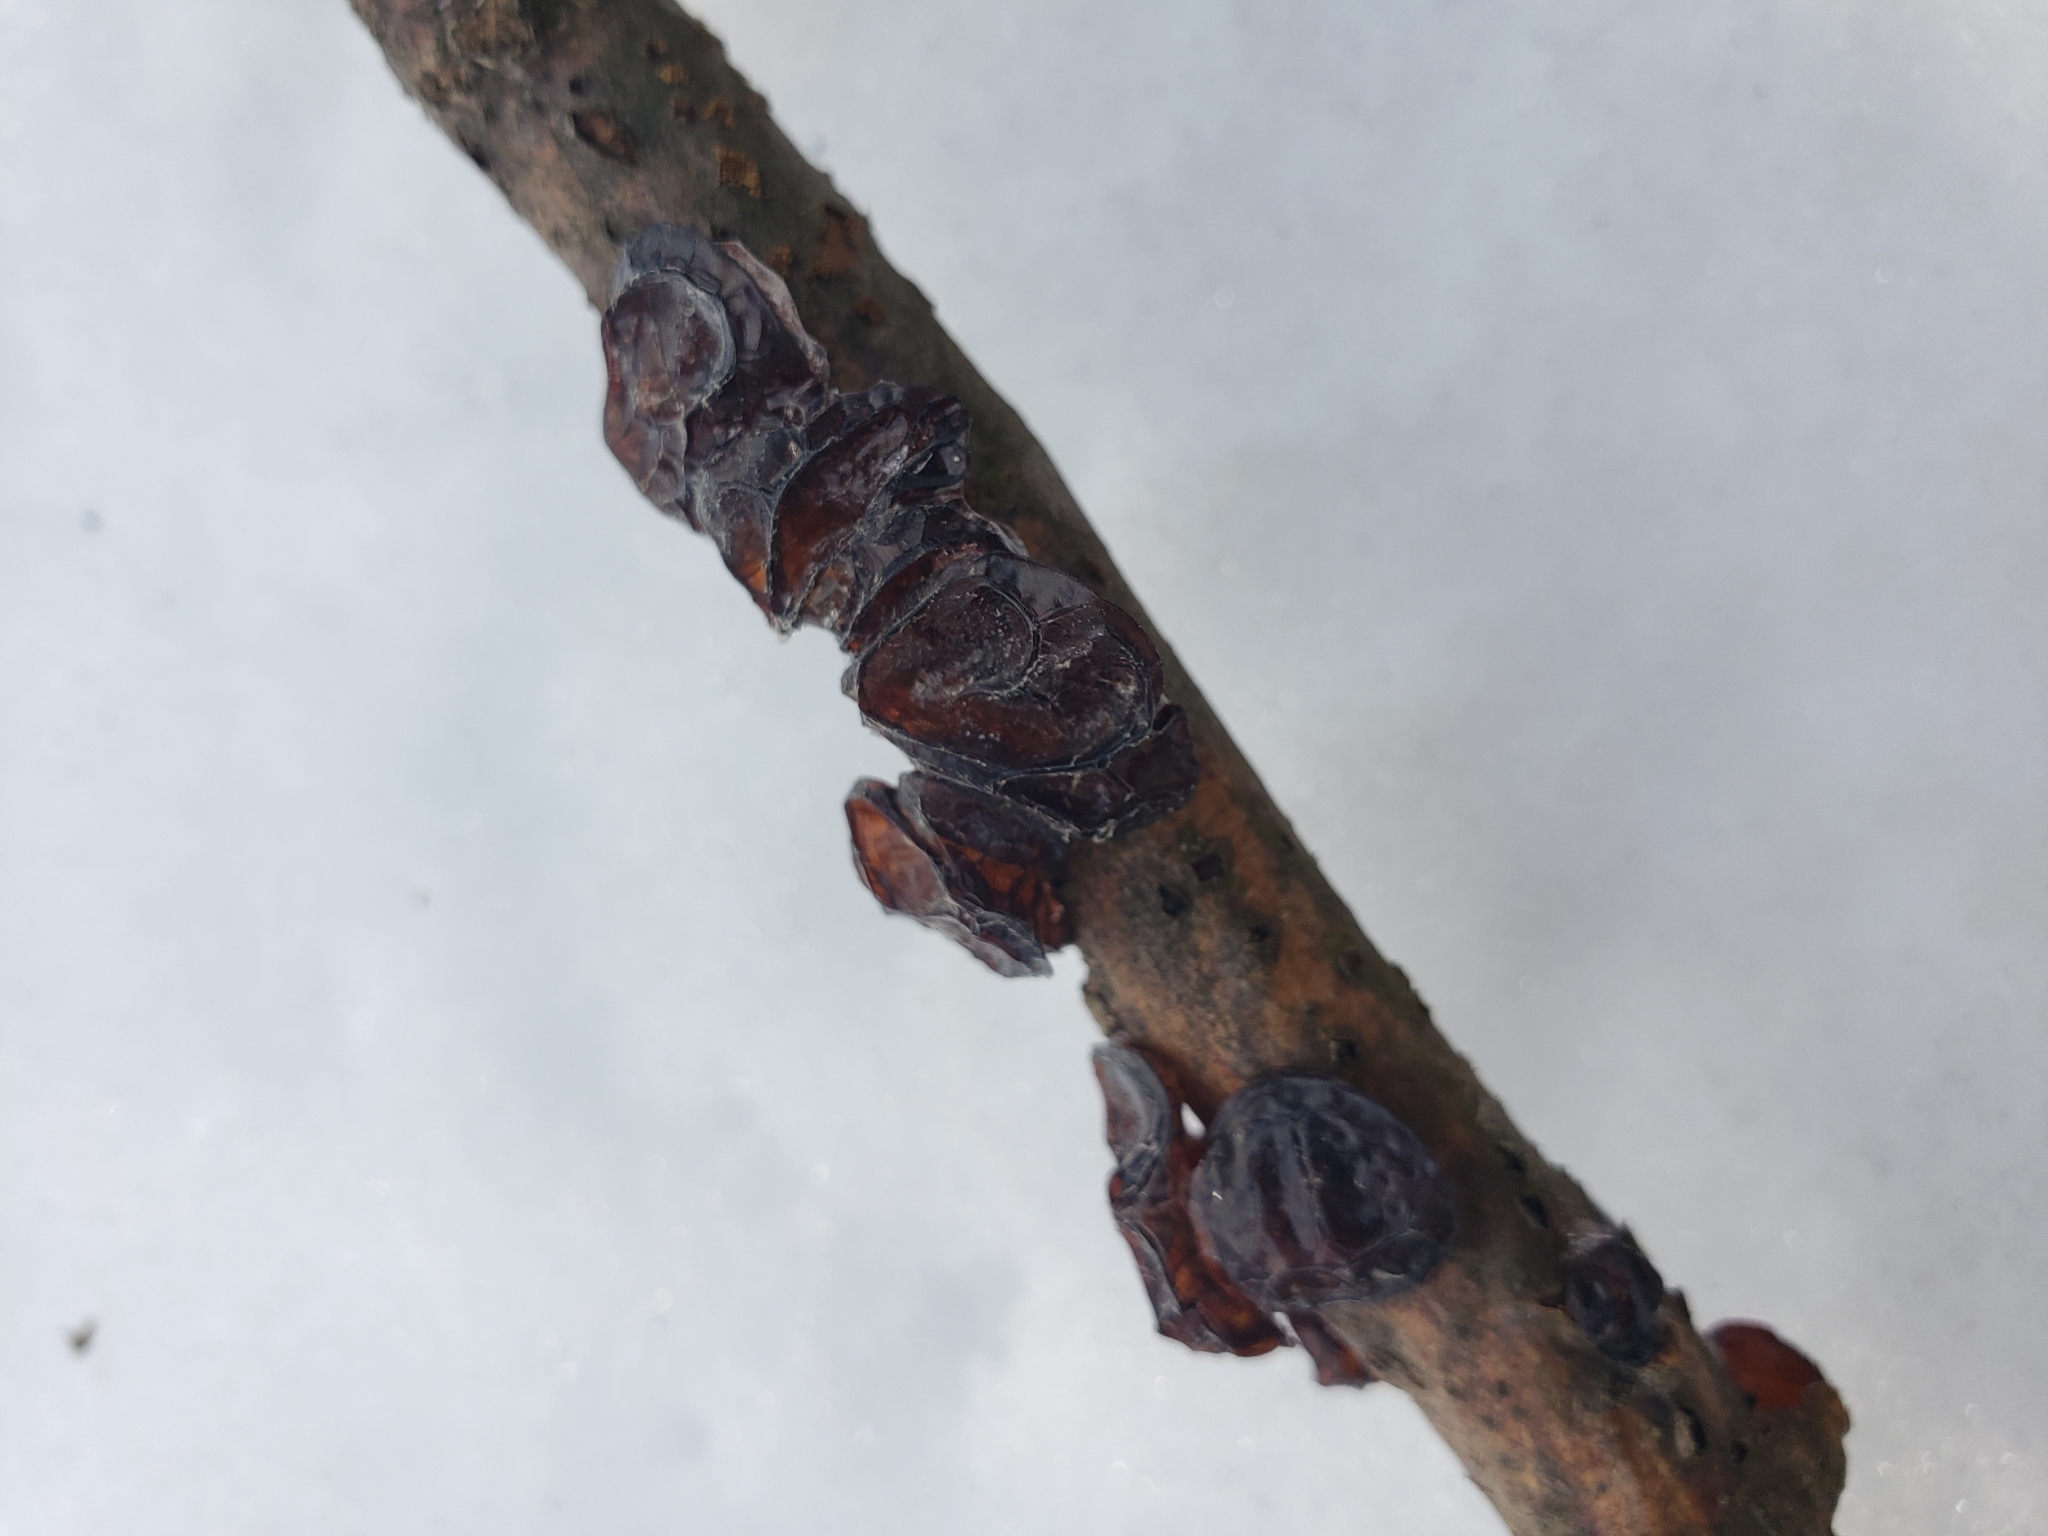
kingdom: Fungi
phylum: Basidiomycota
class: Agaricomycetes
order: Auriculariales
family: Auriculariaceae
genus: Exidia
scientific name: Exidia
